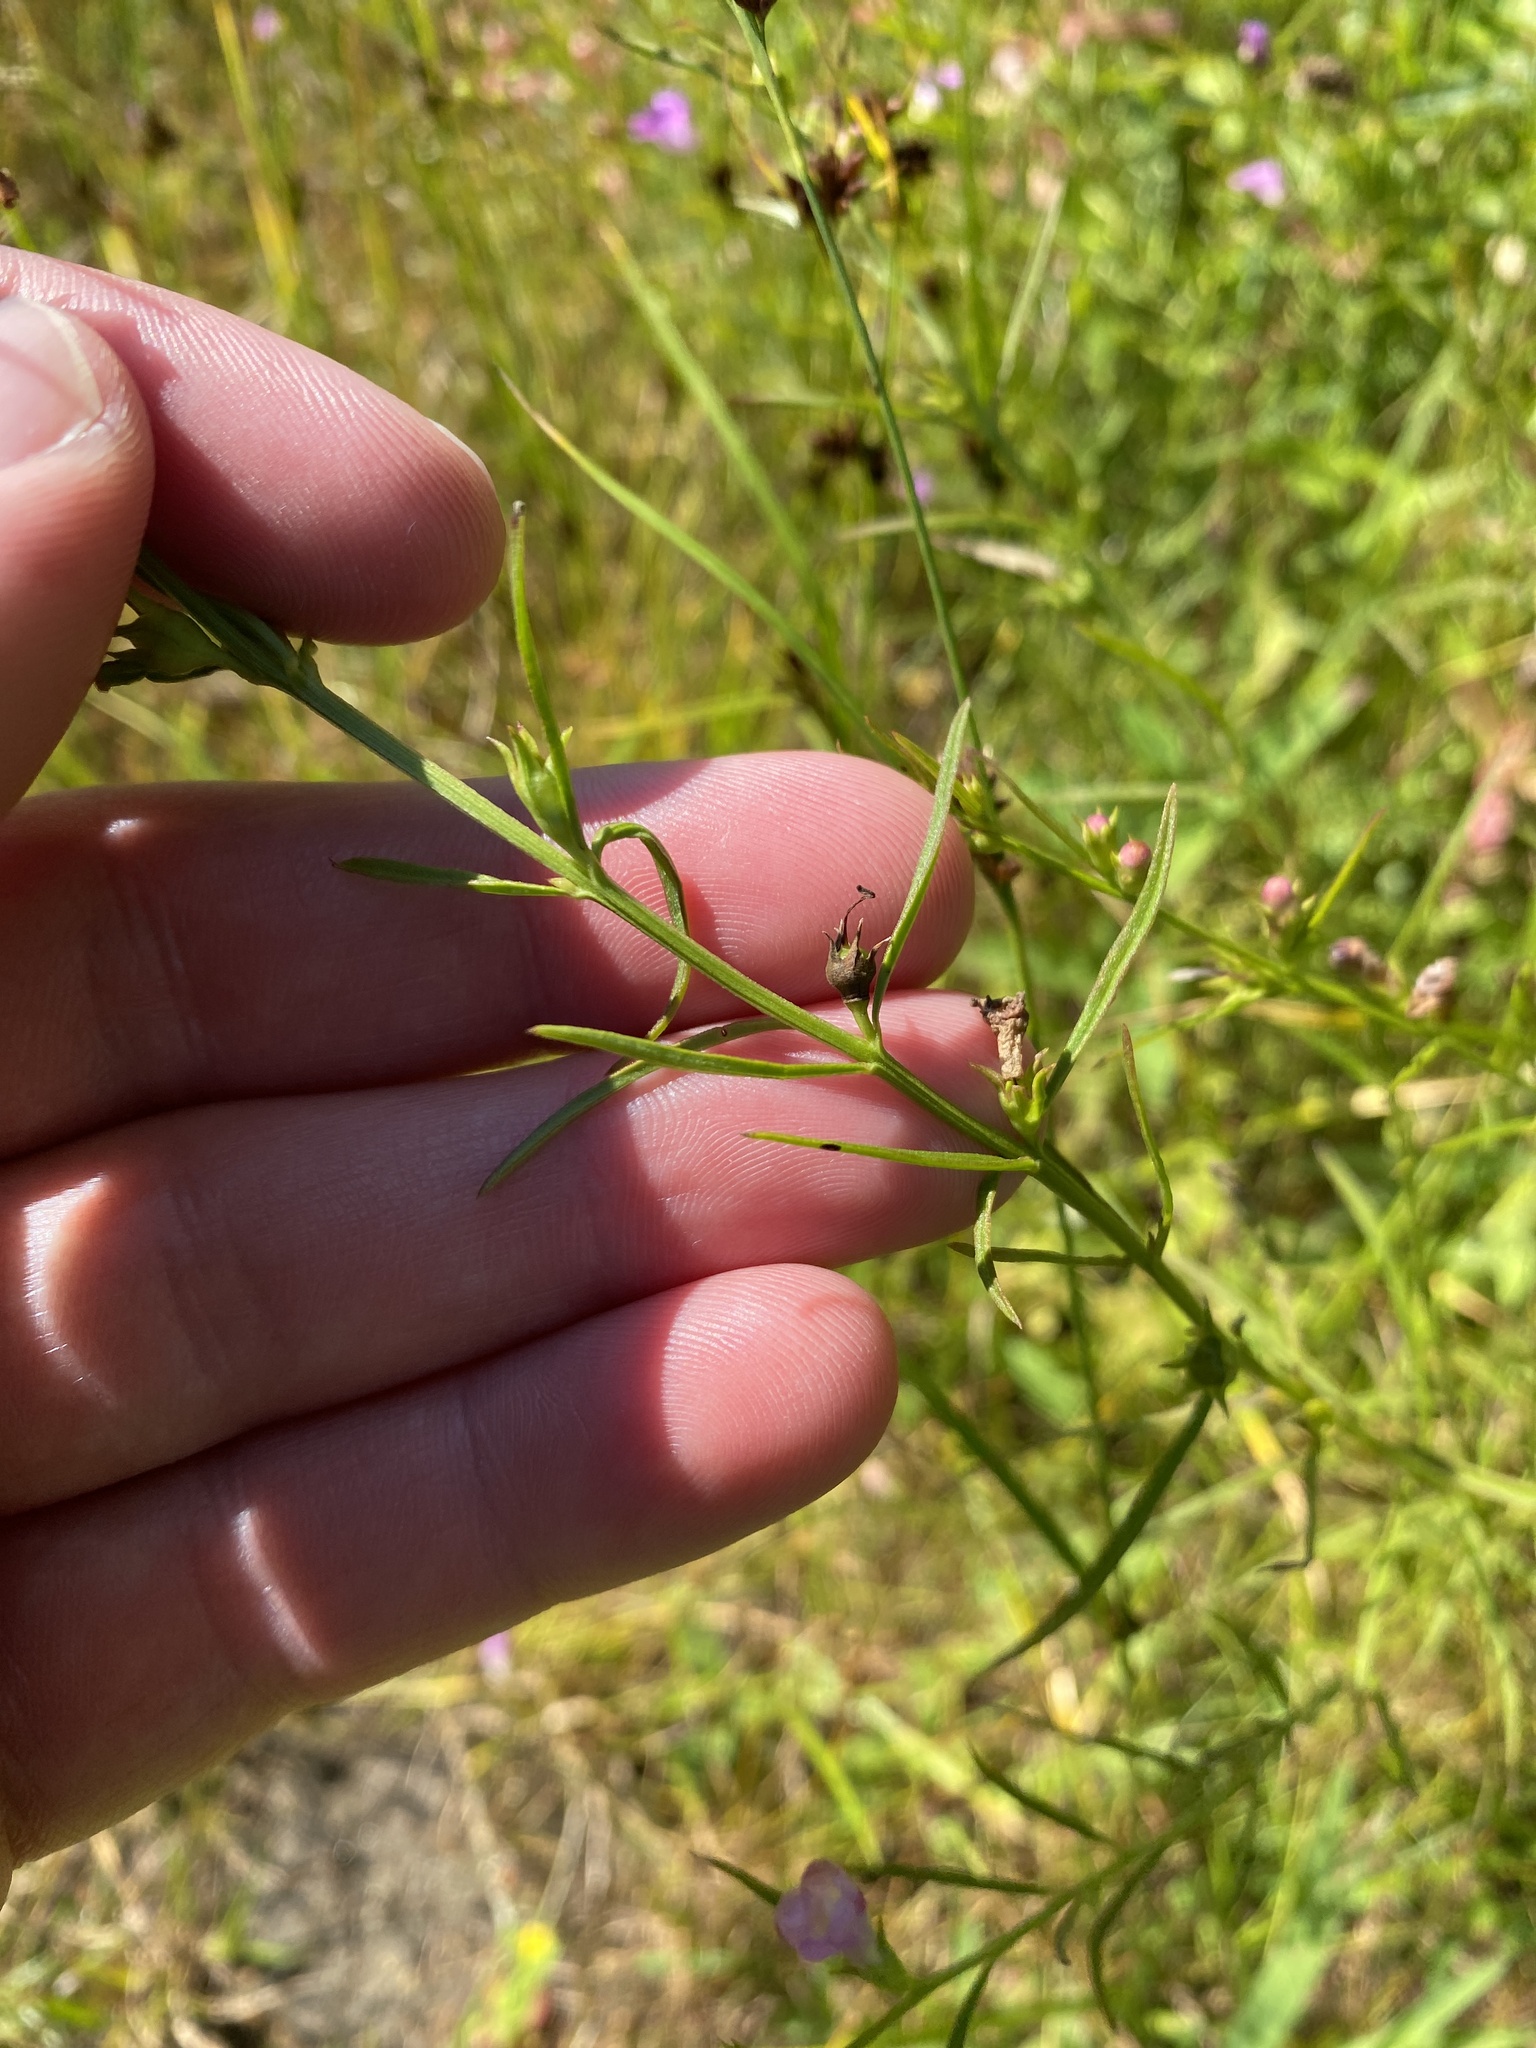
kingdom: Plantae
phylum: Tracheophyta
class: Magnoliopsida
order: Lamiales
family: Orobanchaceae
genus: Agalinis
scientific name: Agalinis purpurea
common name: Purple false foxglove
